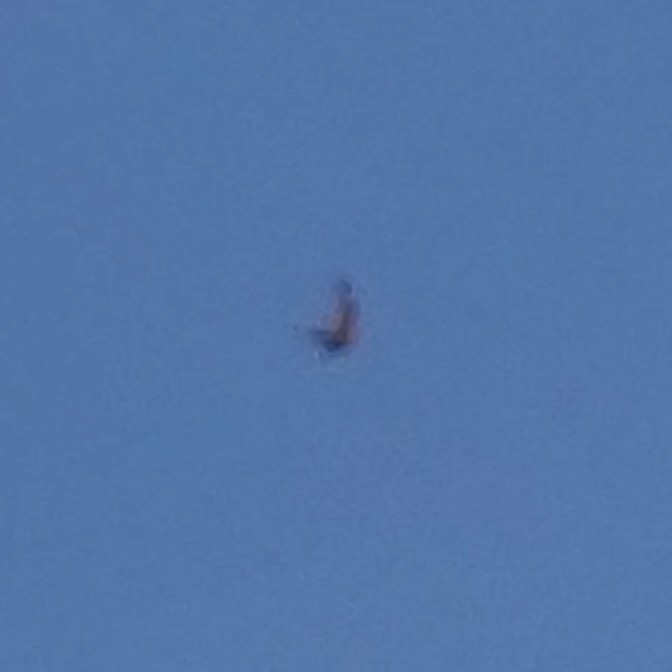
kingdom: Animalia
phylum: Chordata
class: Aves
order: Caprimulgiformes
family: Caprimulgidae
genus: Chordeiles
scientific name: Chordeiles minor
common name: Common nighthawk
